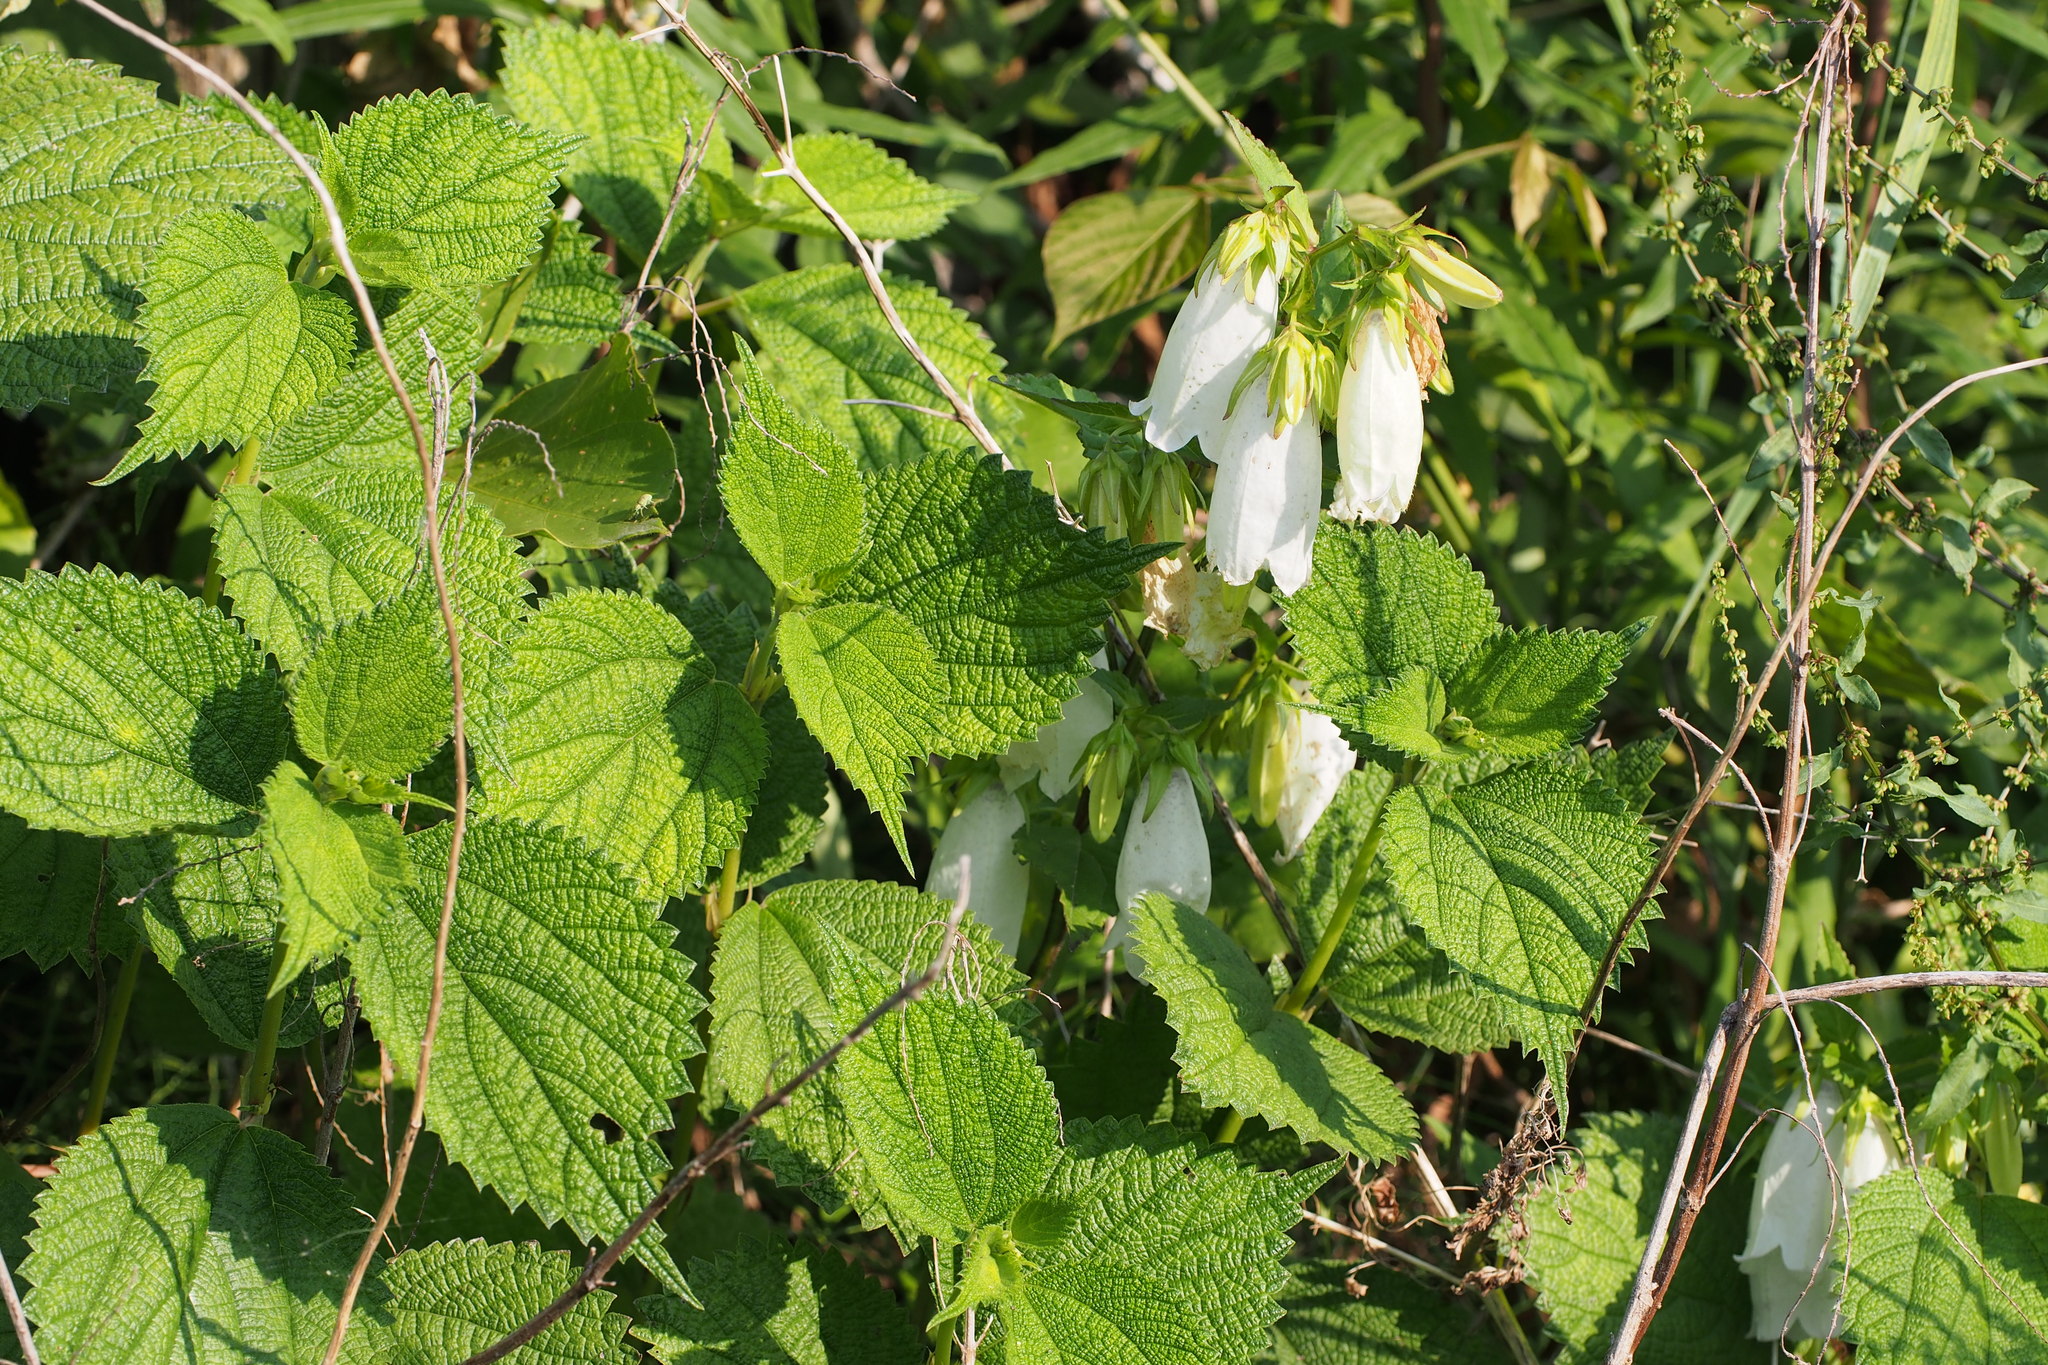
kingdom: Plantae
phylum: Tracheophyta
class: Magnoliopsida
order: Asterales
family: Campanulaceae
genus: Campanula
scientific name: Campanula punctata
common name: Spotted bellflower
